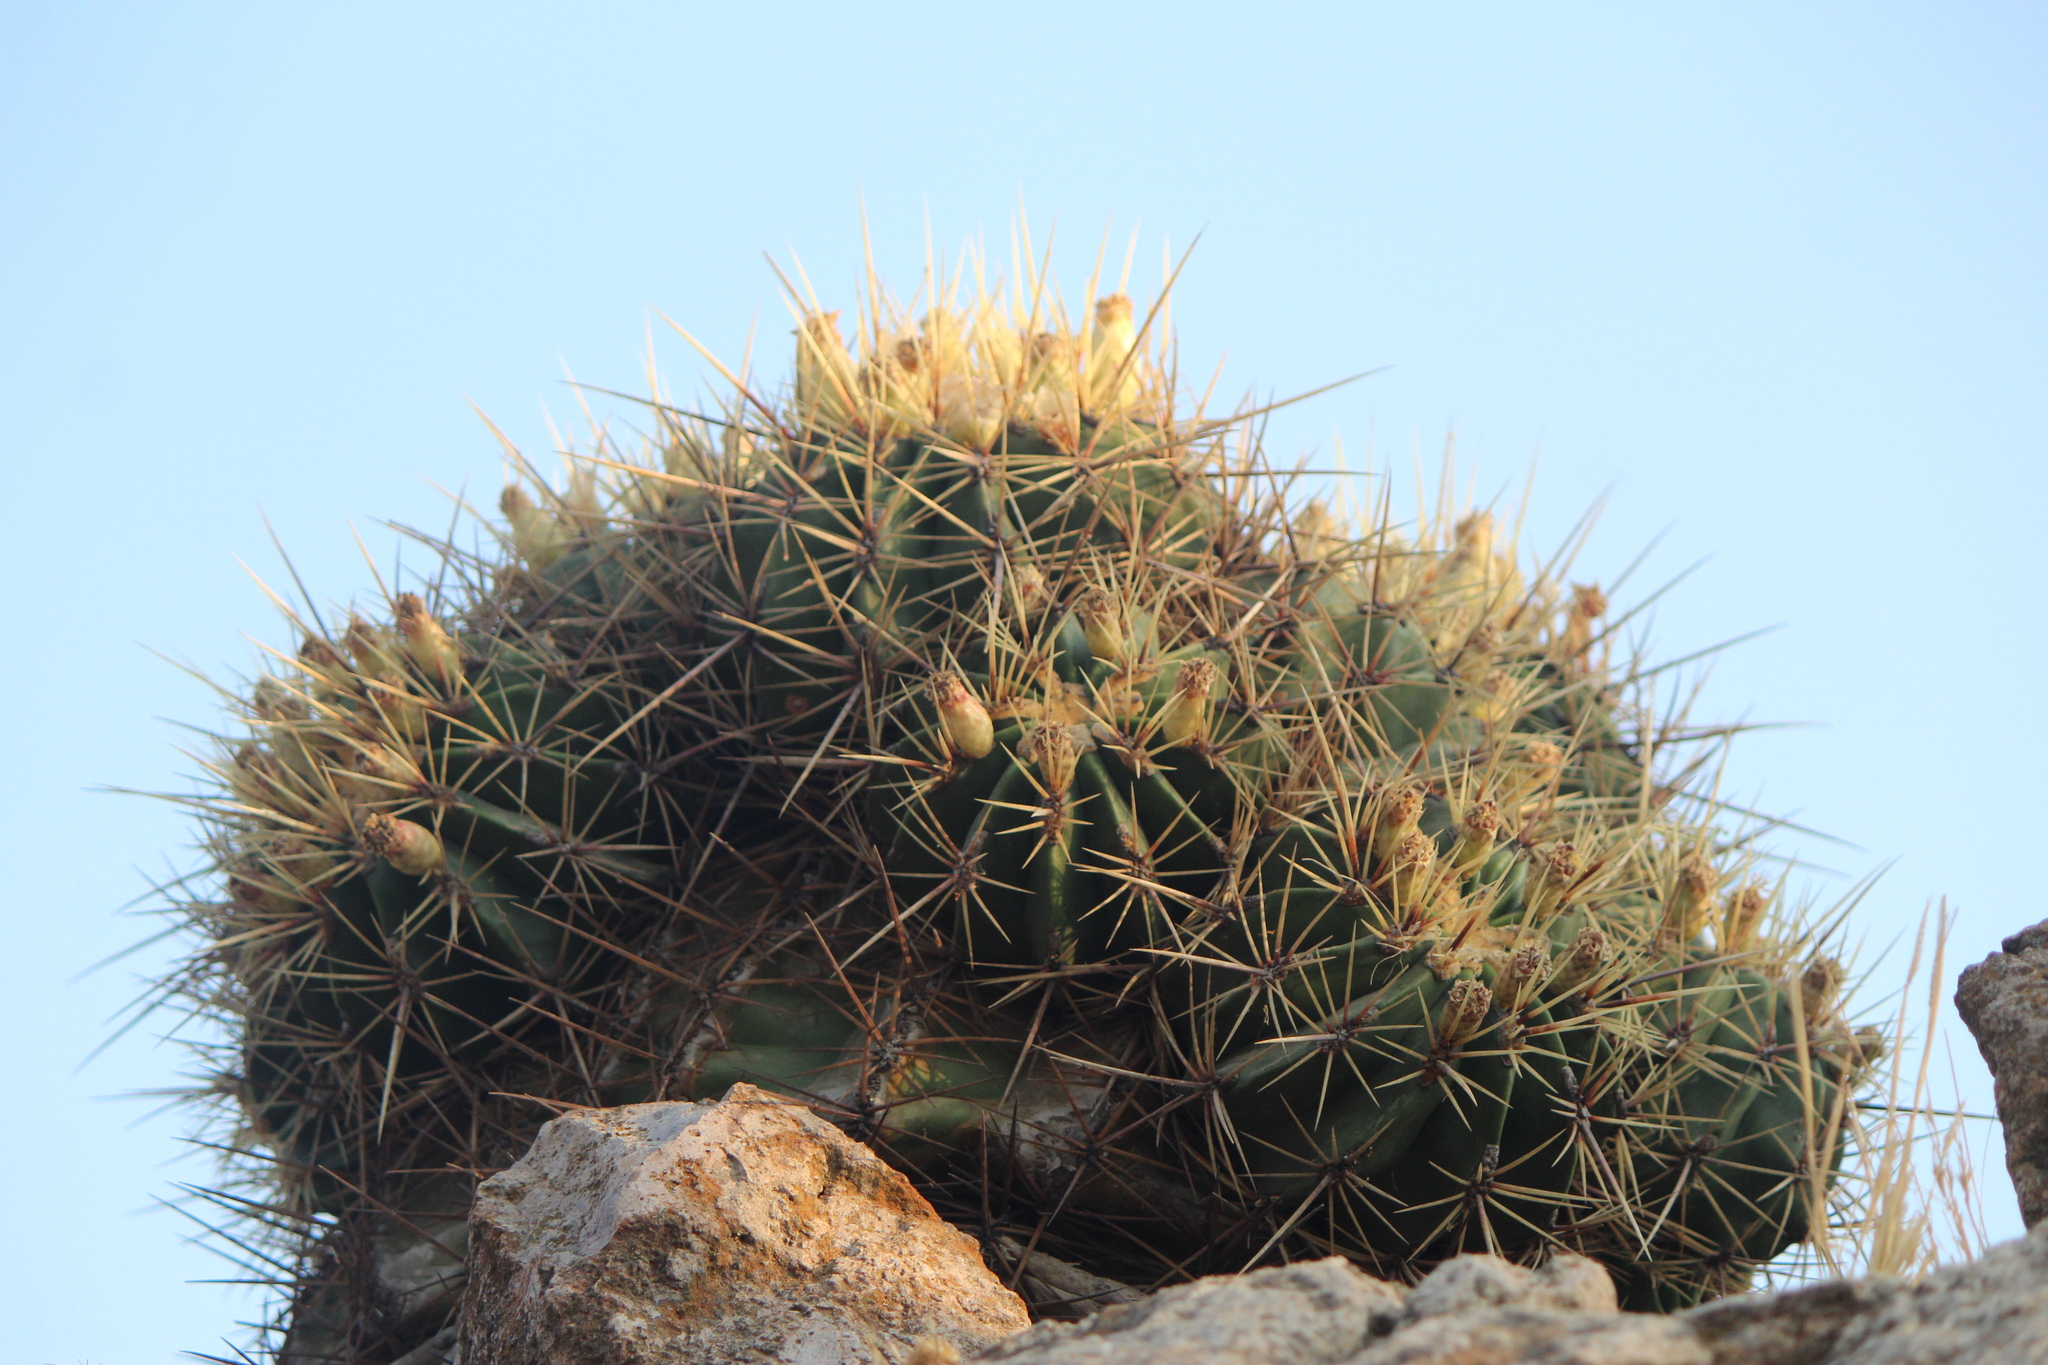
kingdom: Plantae
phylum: Tracheophyta
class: Magnoliopsida
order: Caryophyllales
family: Cactaceae
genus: Bisnaga
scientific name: Bisnaga histrix
